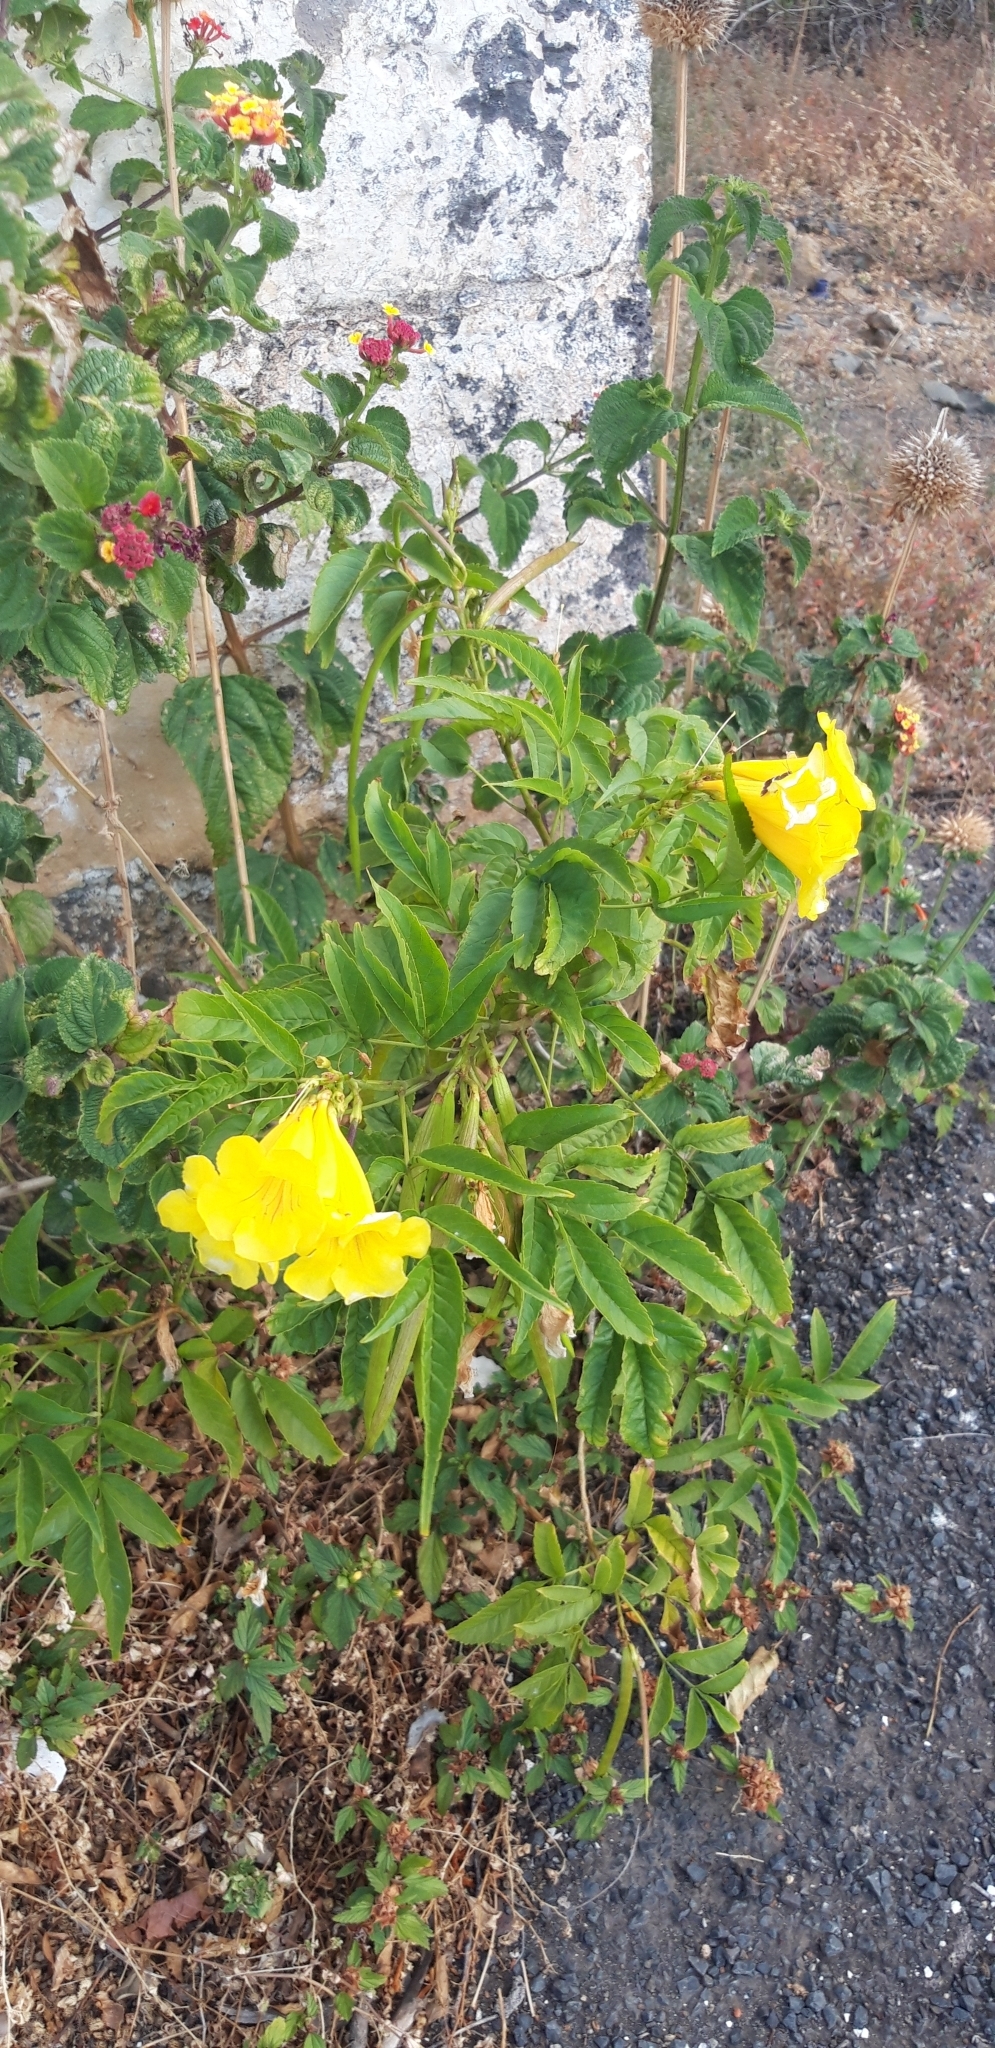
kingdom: Plantae
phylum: Tracheophyta
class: Magnoliopsida
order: Lamiales
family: Bignoniaceae
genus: Tecoma
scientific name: Tecoma stans
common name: Yellow trumpetbush
